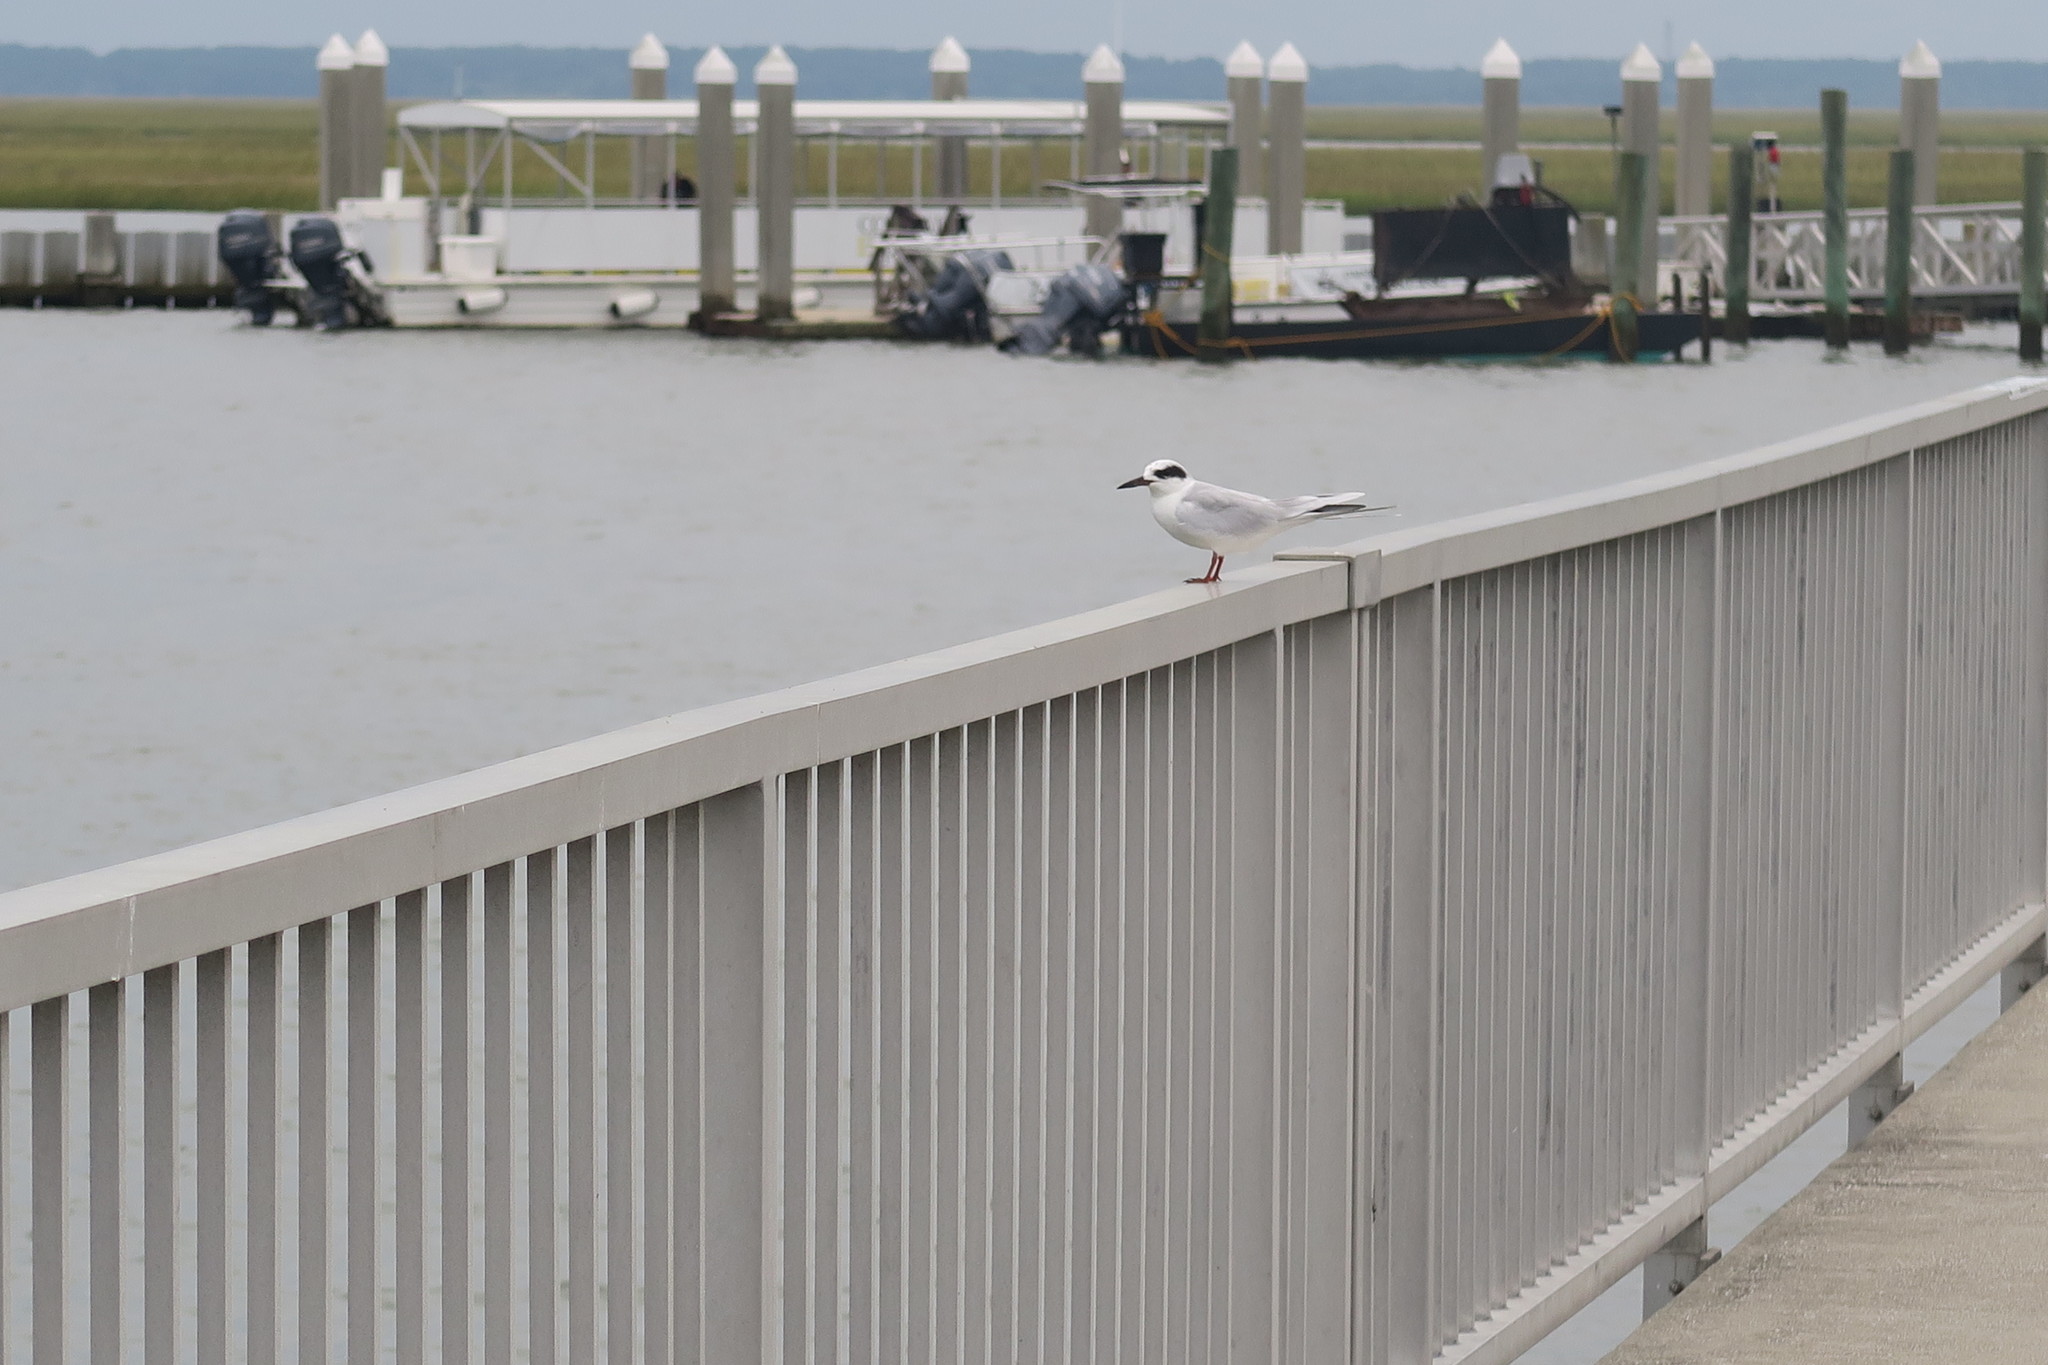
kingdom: Animalia
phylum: Chordata
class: Aves
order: Charadriiformes
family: Laridae
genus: Sterna
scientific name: Sterna forsteri
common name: Forster's tern
